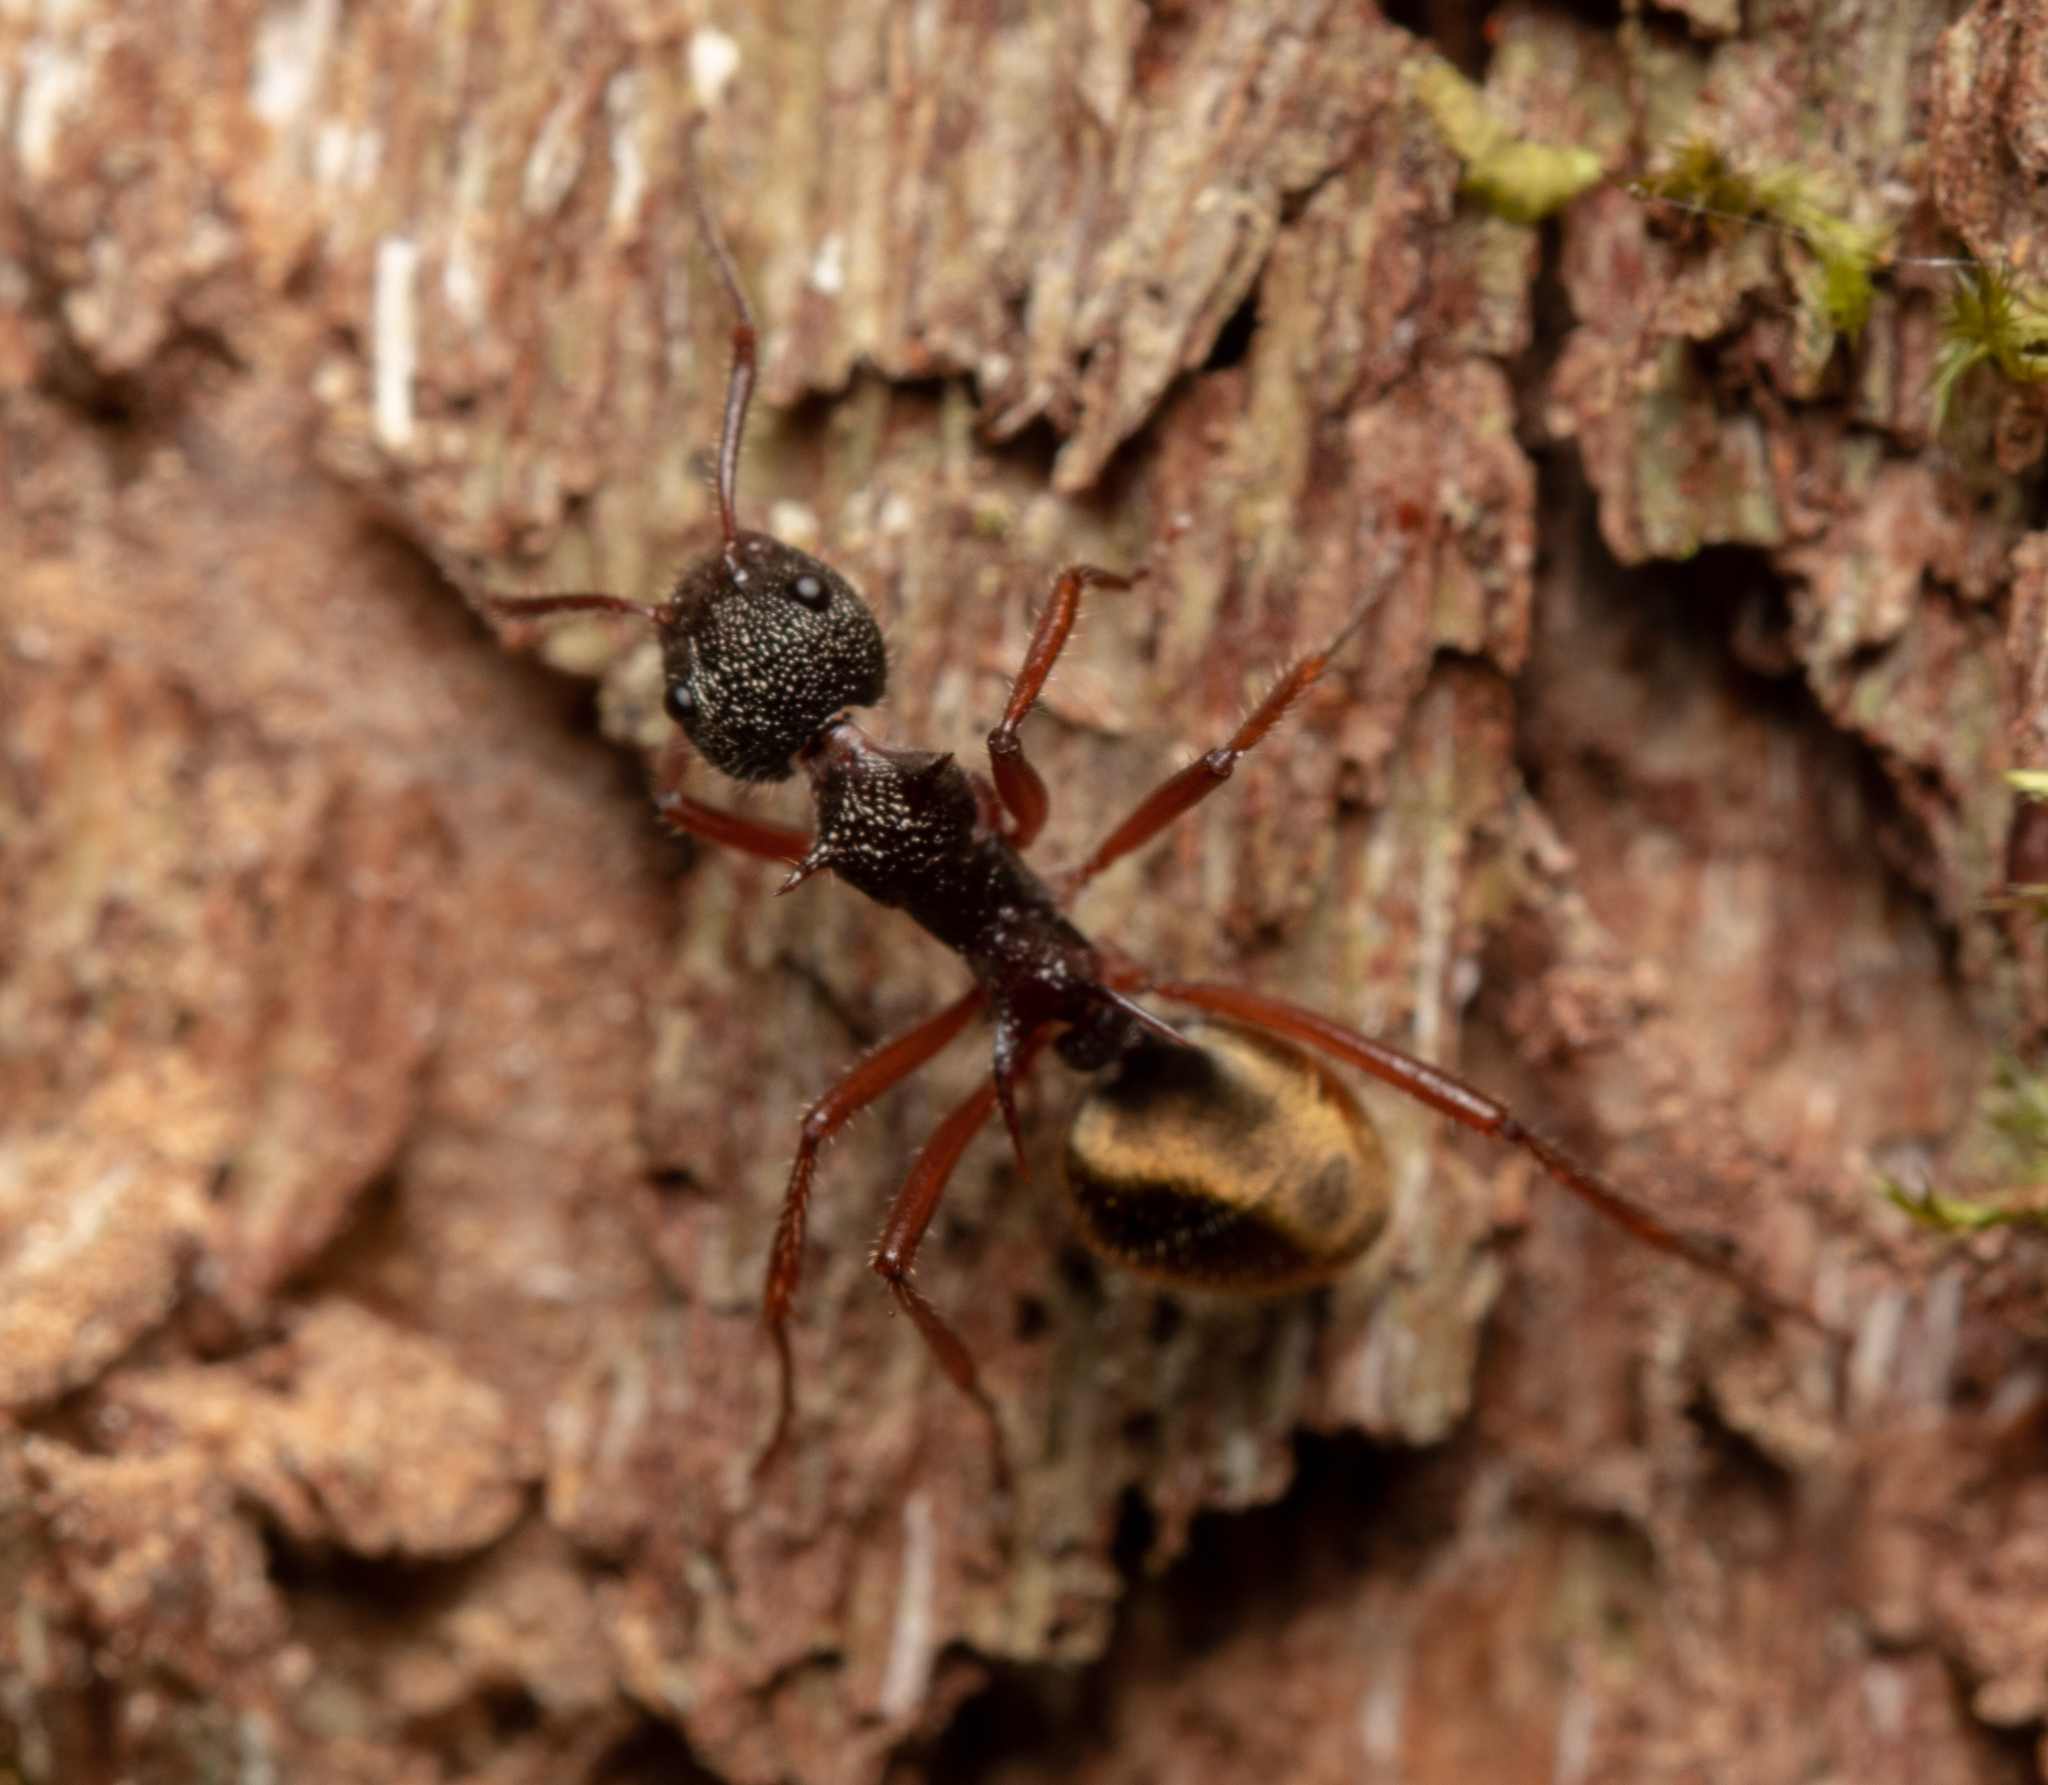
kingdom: Animalia
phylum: Arthropoda
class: Insecta
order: Hymenoptera
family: Formicidae
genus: Dolichoderus
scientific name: Dolichoderus extensispinus
